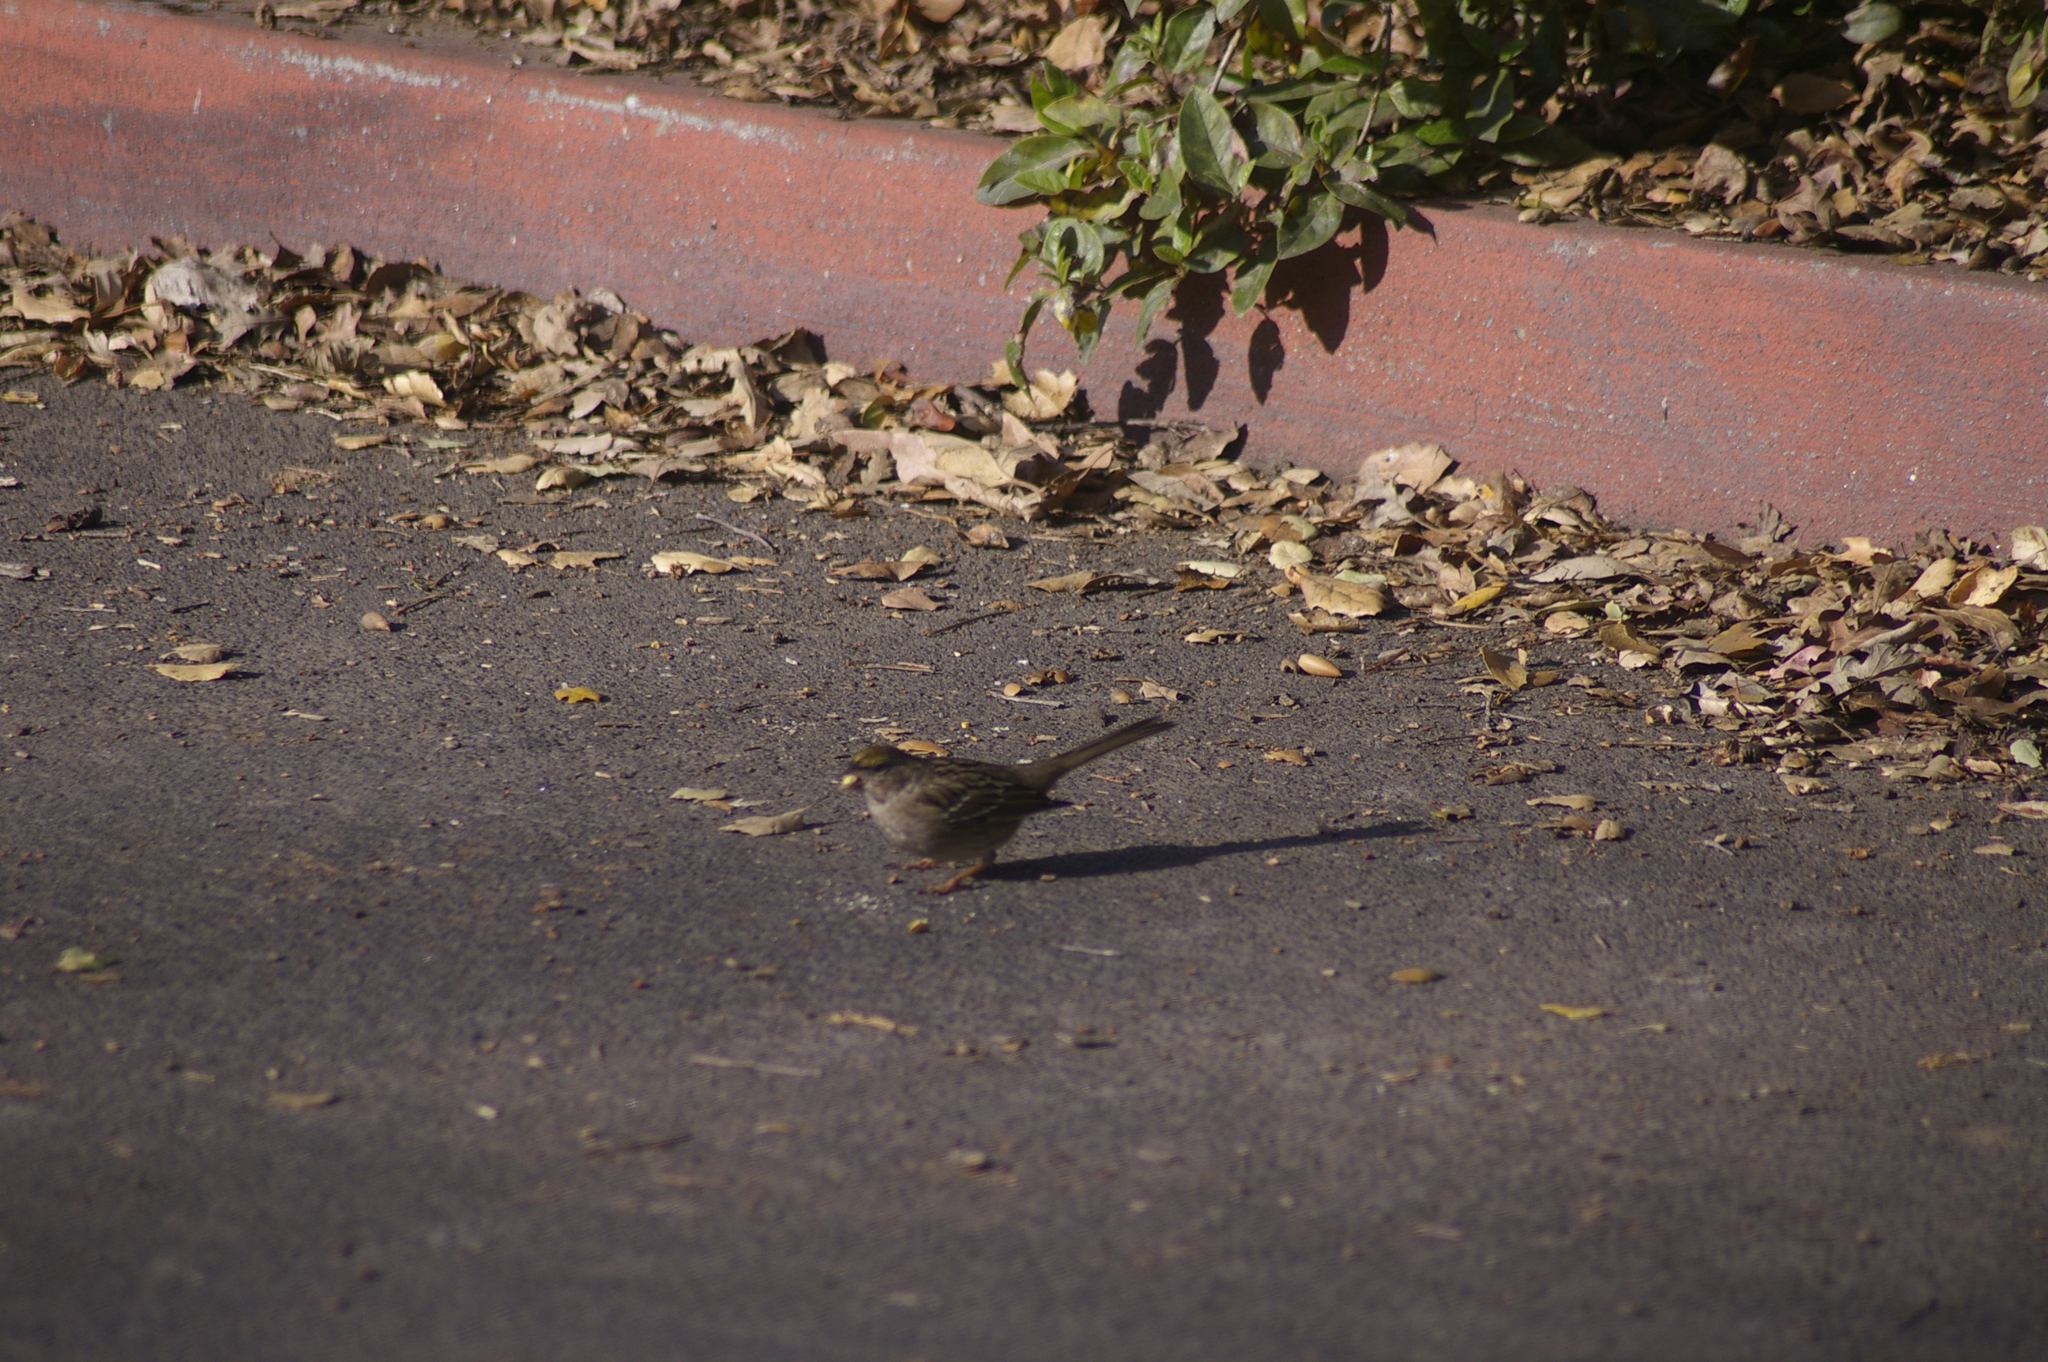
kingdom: Animalia
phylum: Chordata
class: Aves
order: Passeriformes
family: Passerellidae
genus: Zonotrichia
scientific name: Zonotrichia atricapilla
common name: Golden-crowned sparrow
